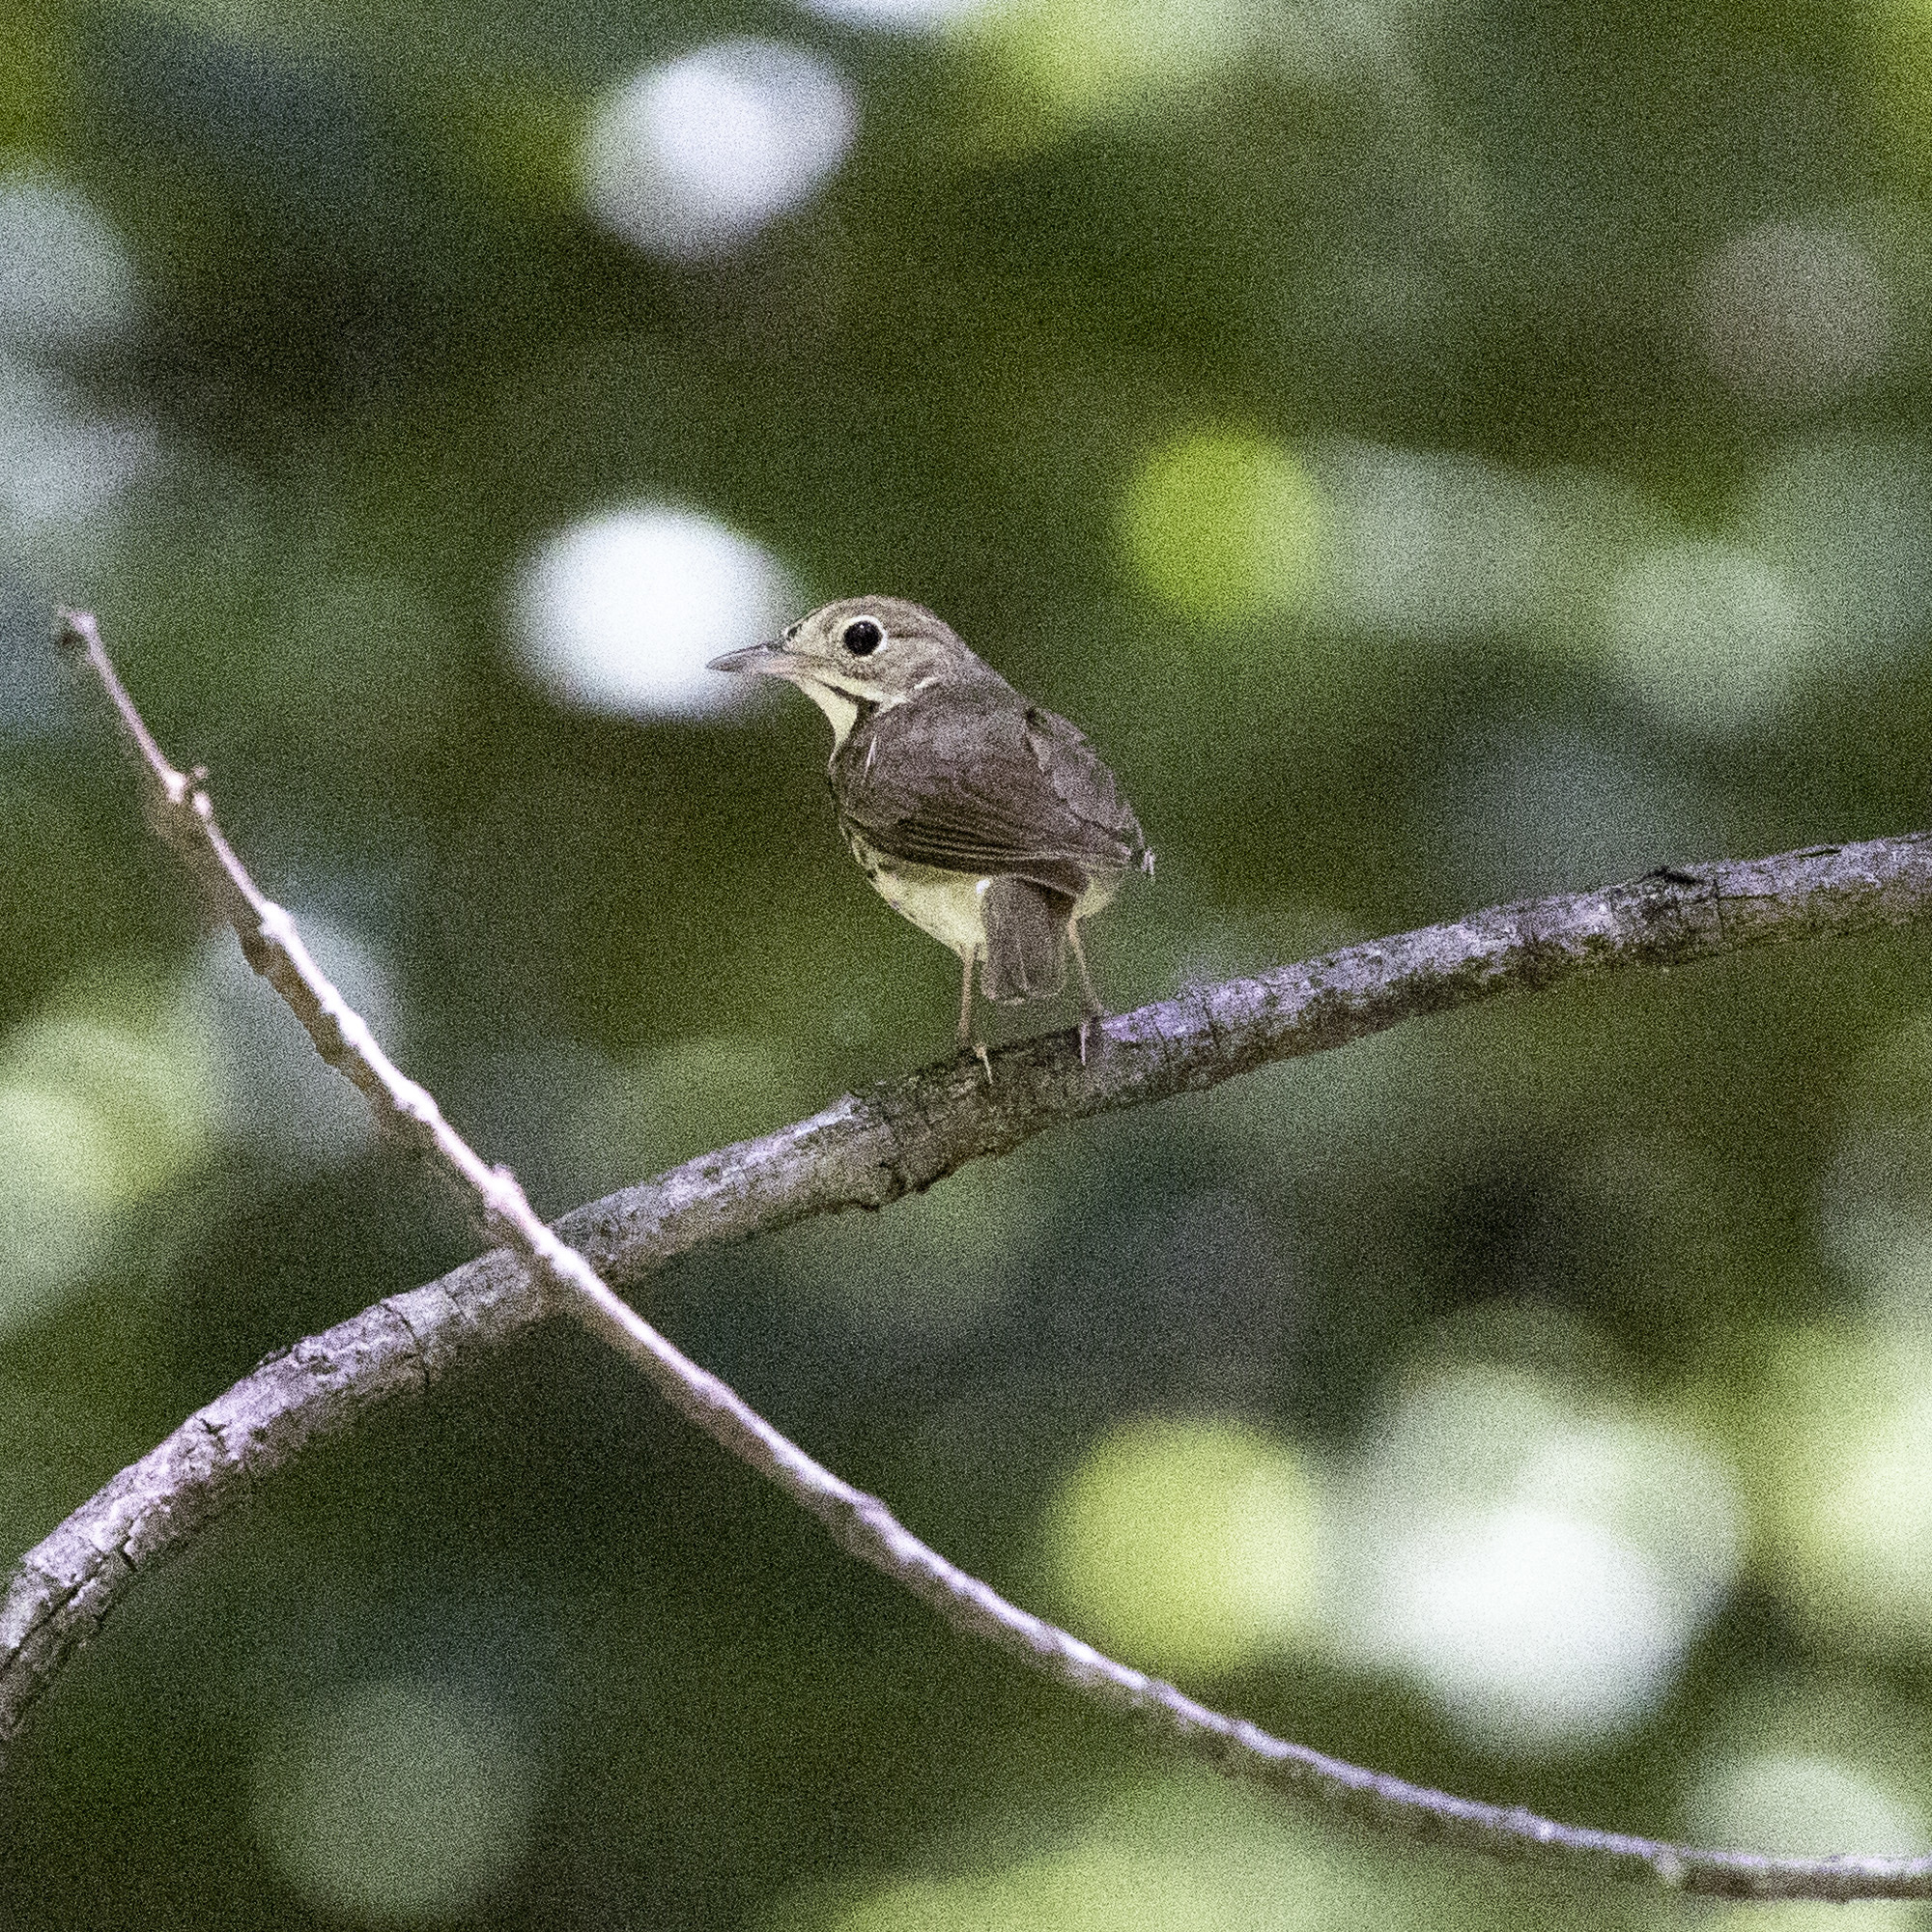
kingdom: Animalia
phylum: Chordata
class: Aves
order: Passeriformes
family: Parulidae
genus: Seiurus
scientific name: Seiurus aurocapilla
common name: Ovenbird
